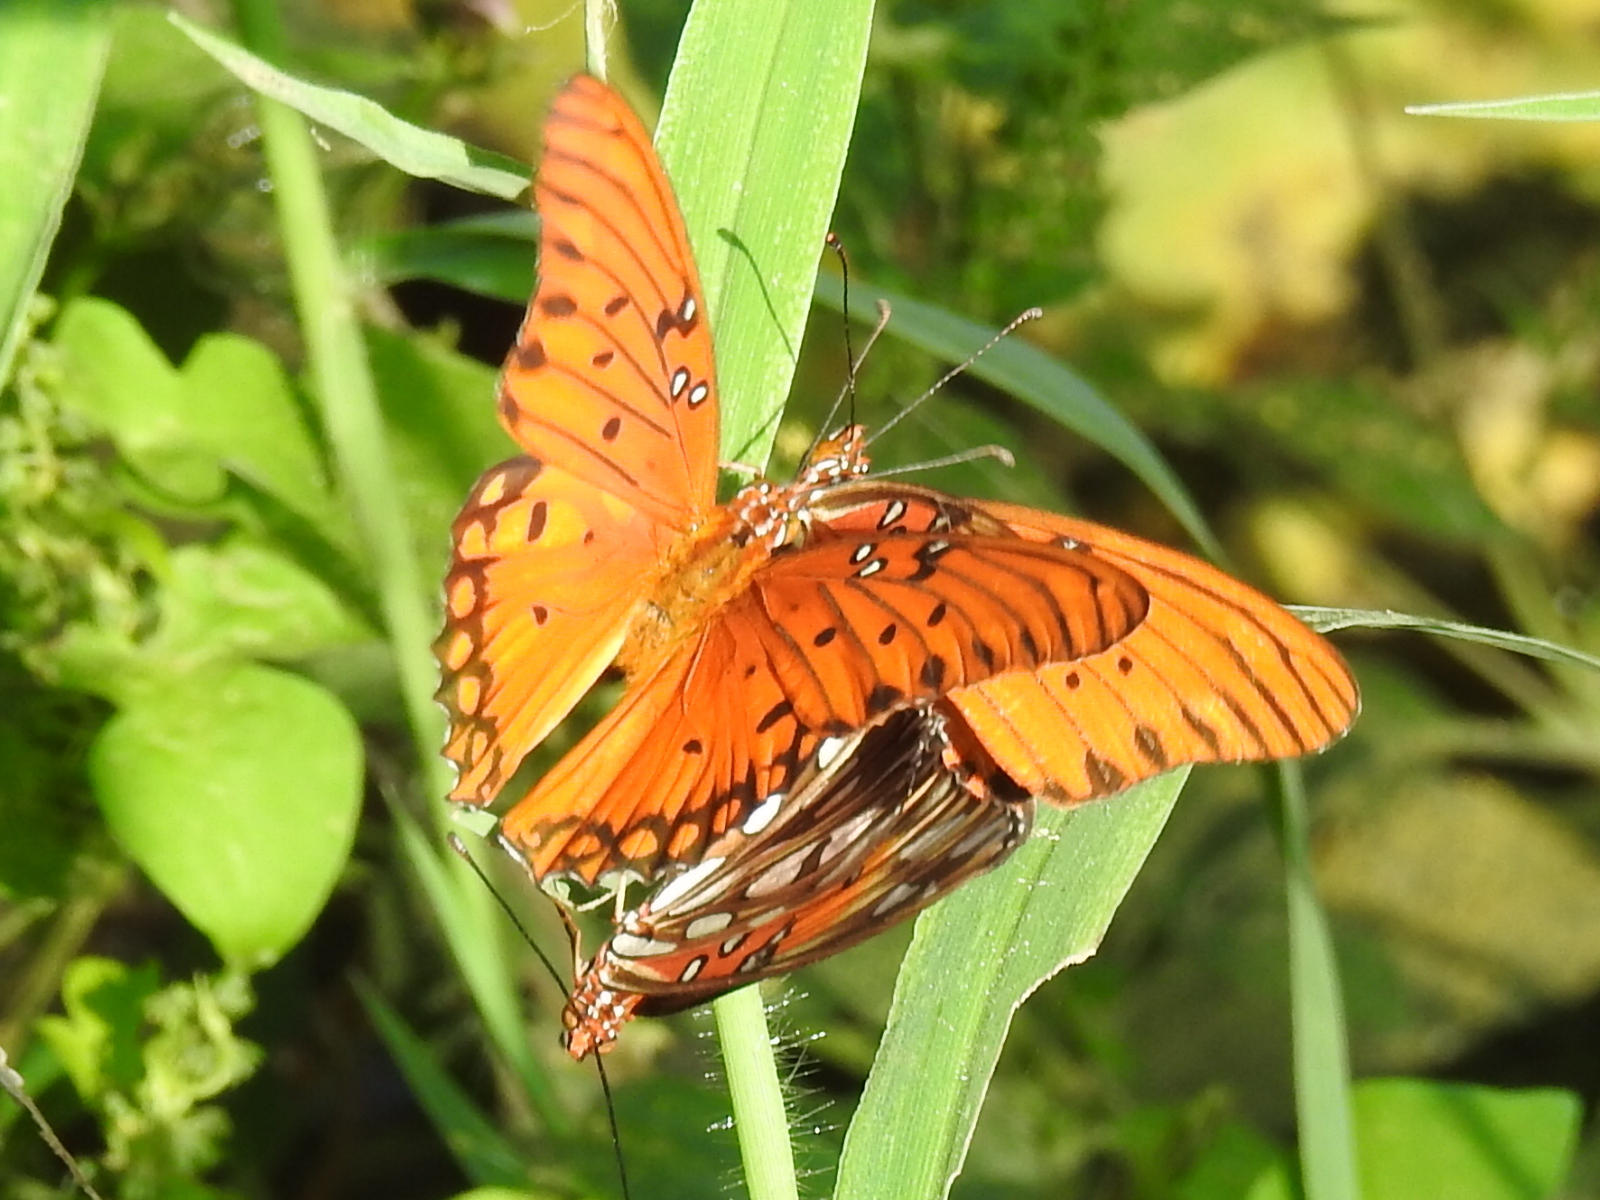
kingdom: Animalia
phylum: Arthropoda
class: Insecta
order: Lepidoptera
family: Nymphalidae
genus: Dione
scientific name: Dione vanillae
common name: Gulf fritillary
